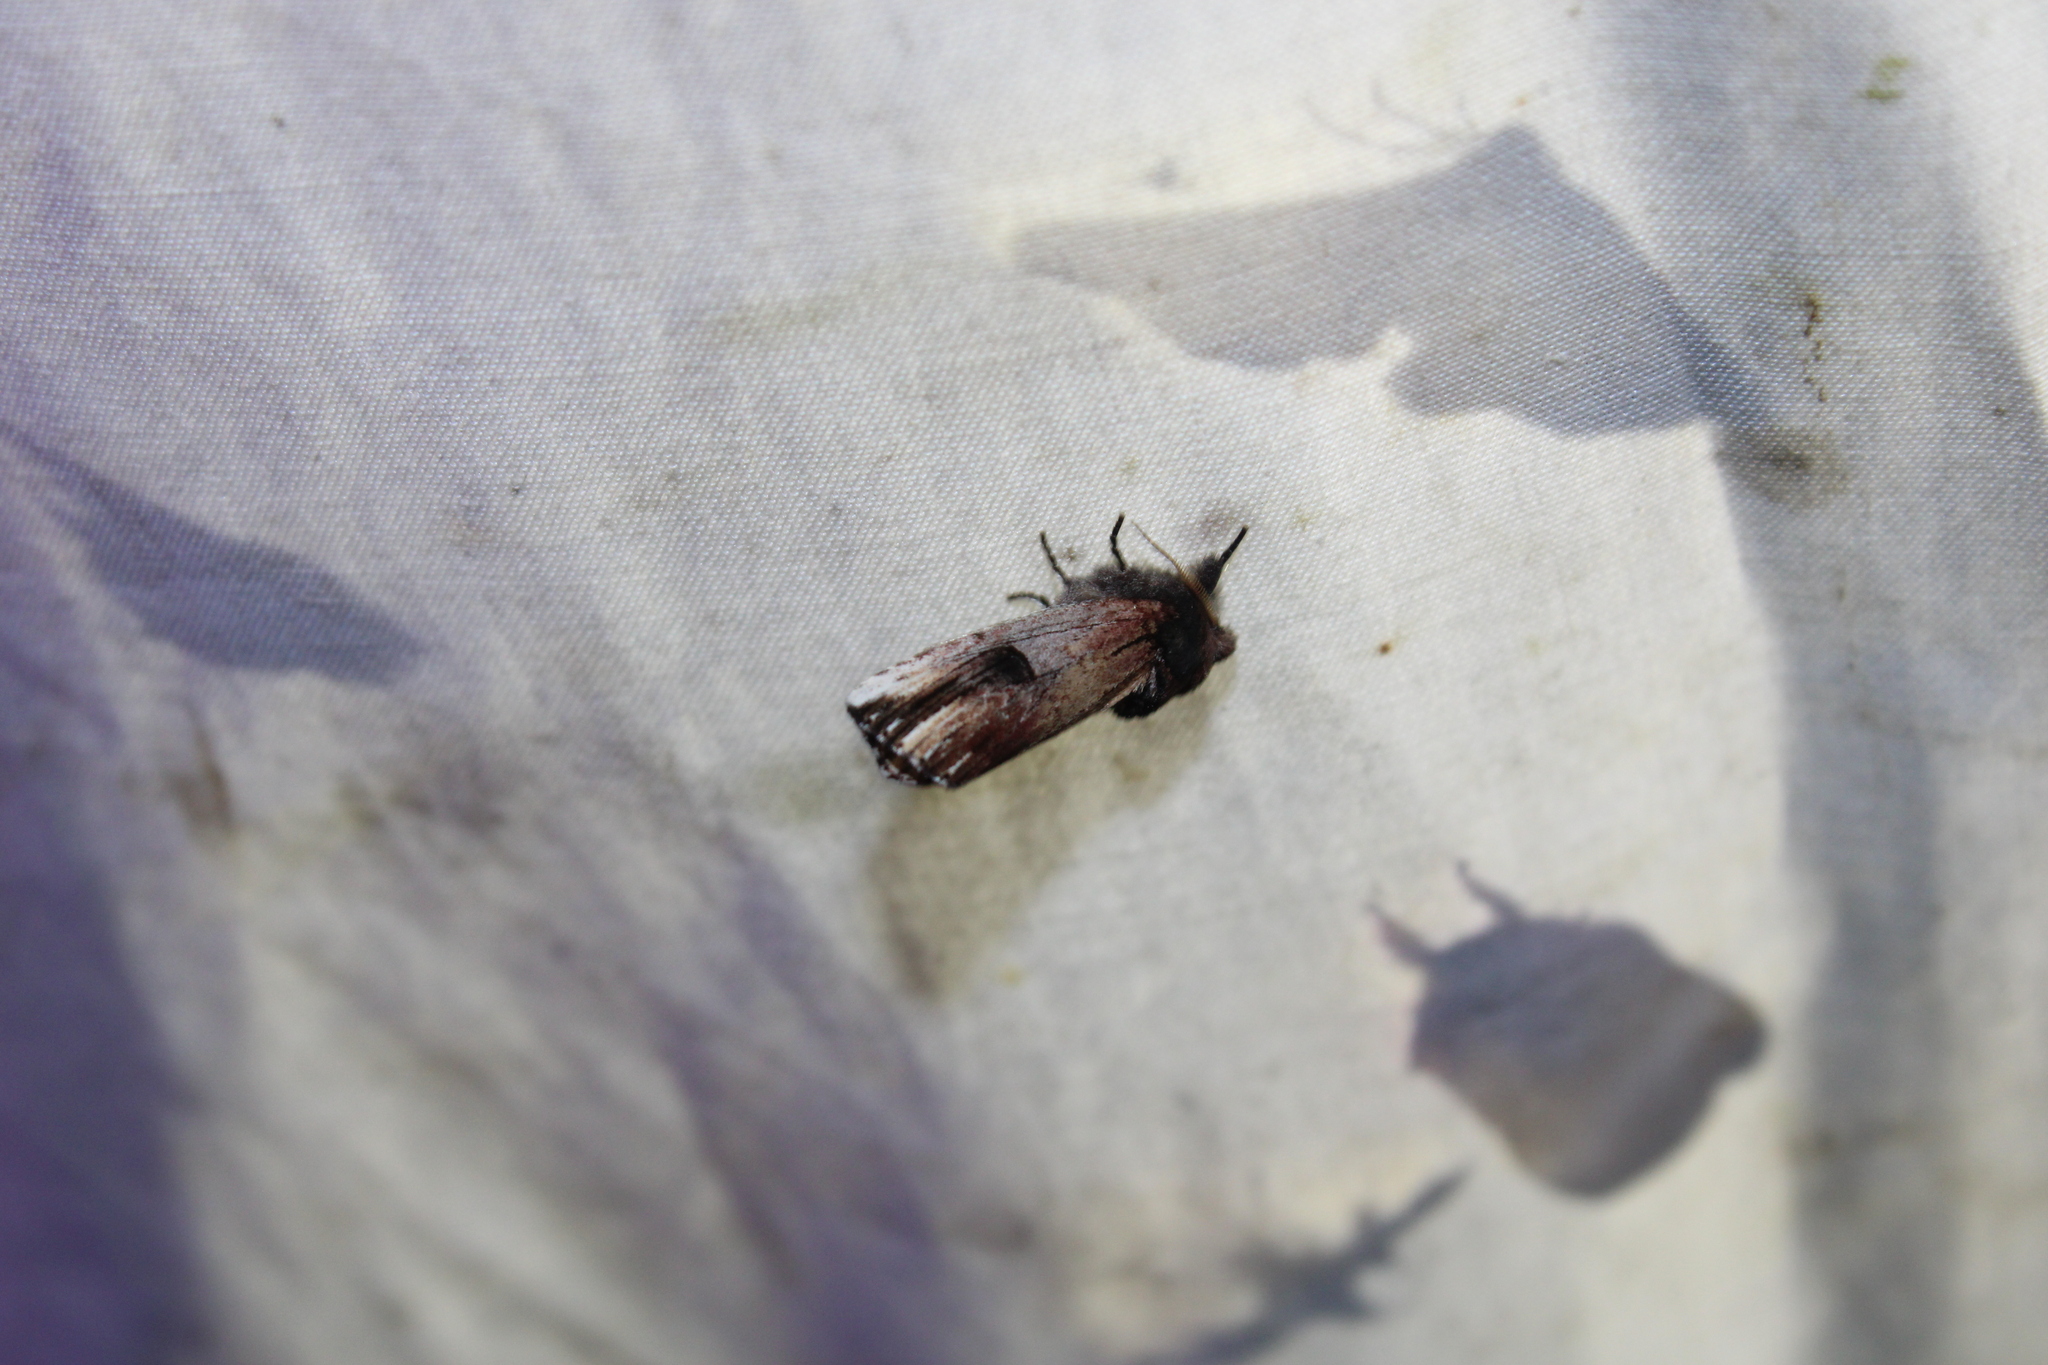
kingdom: Animalia
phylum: Arthropoda
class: Insecta
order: Lepidoptera
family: Notodontidae
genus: Schizura
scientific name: Schizura badia
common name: Chestnut schizura
